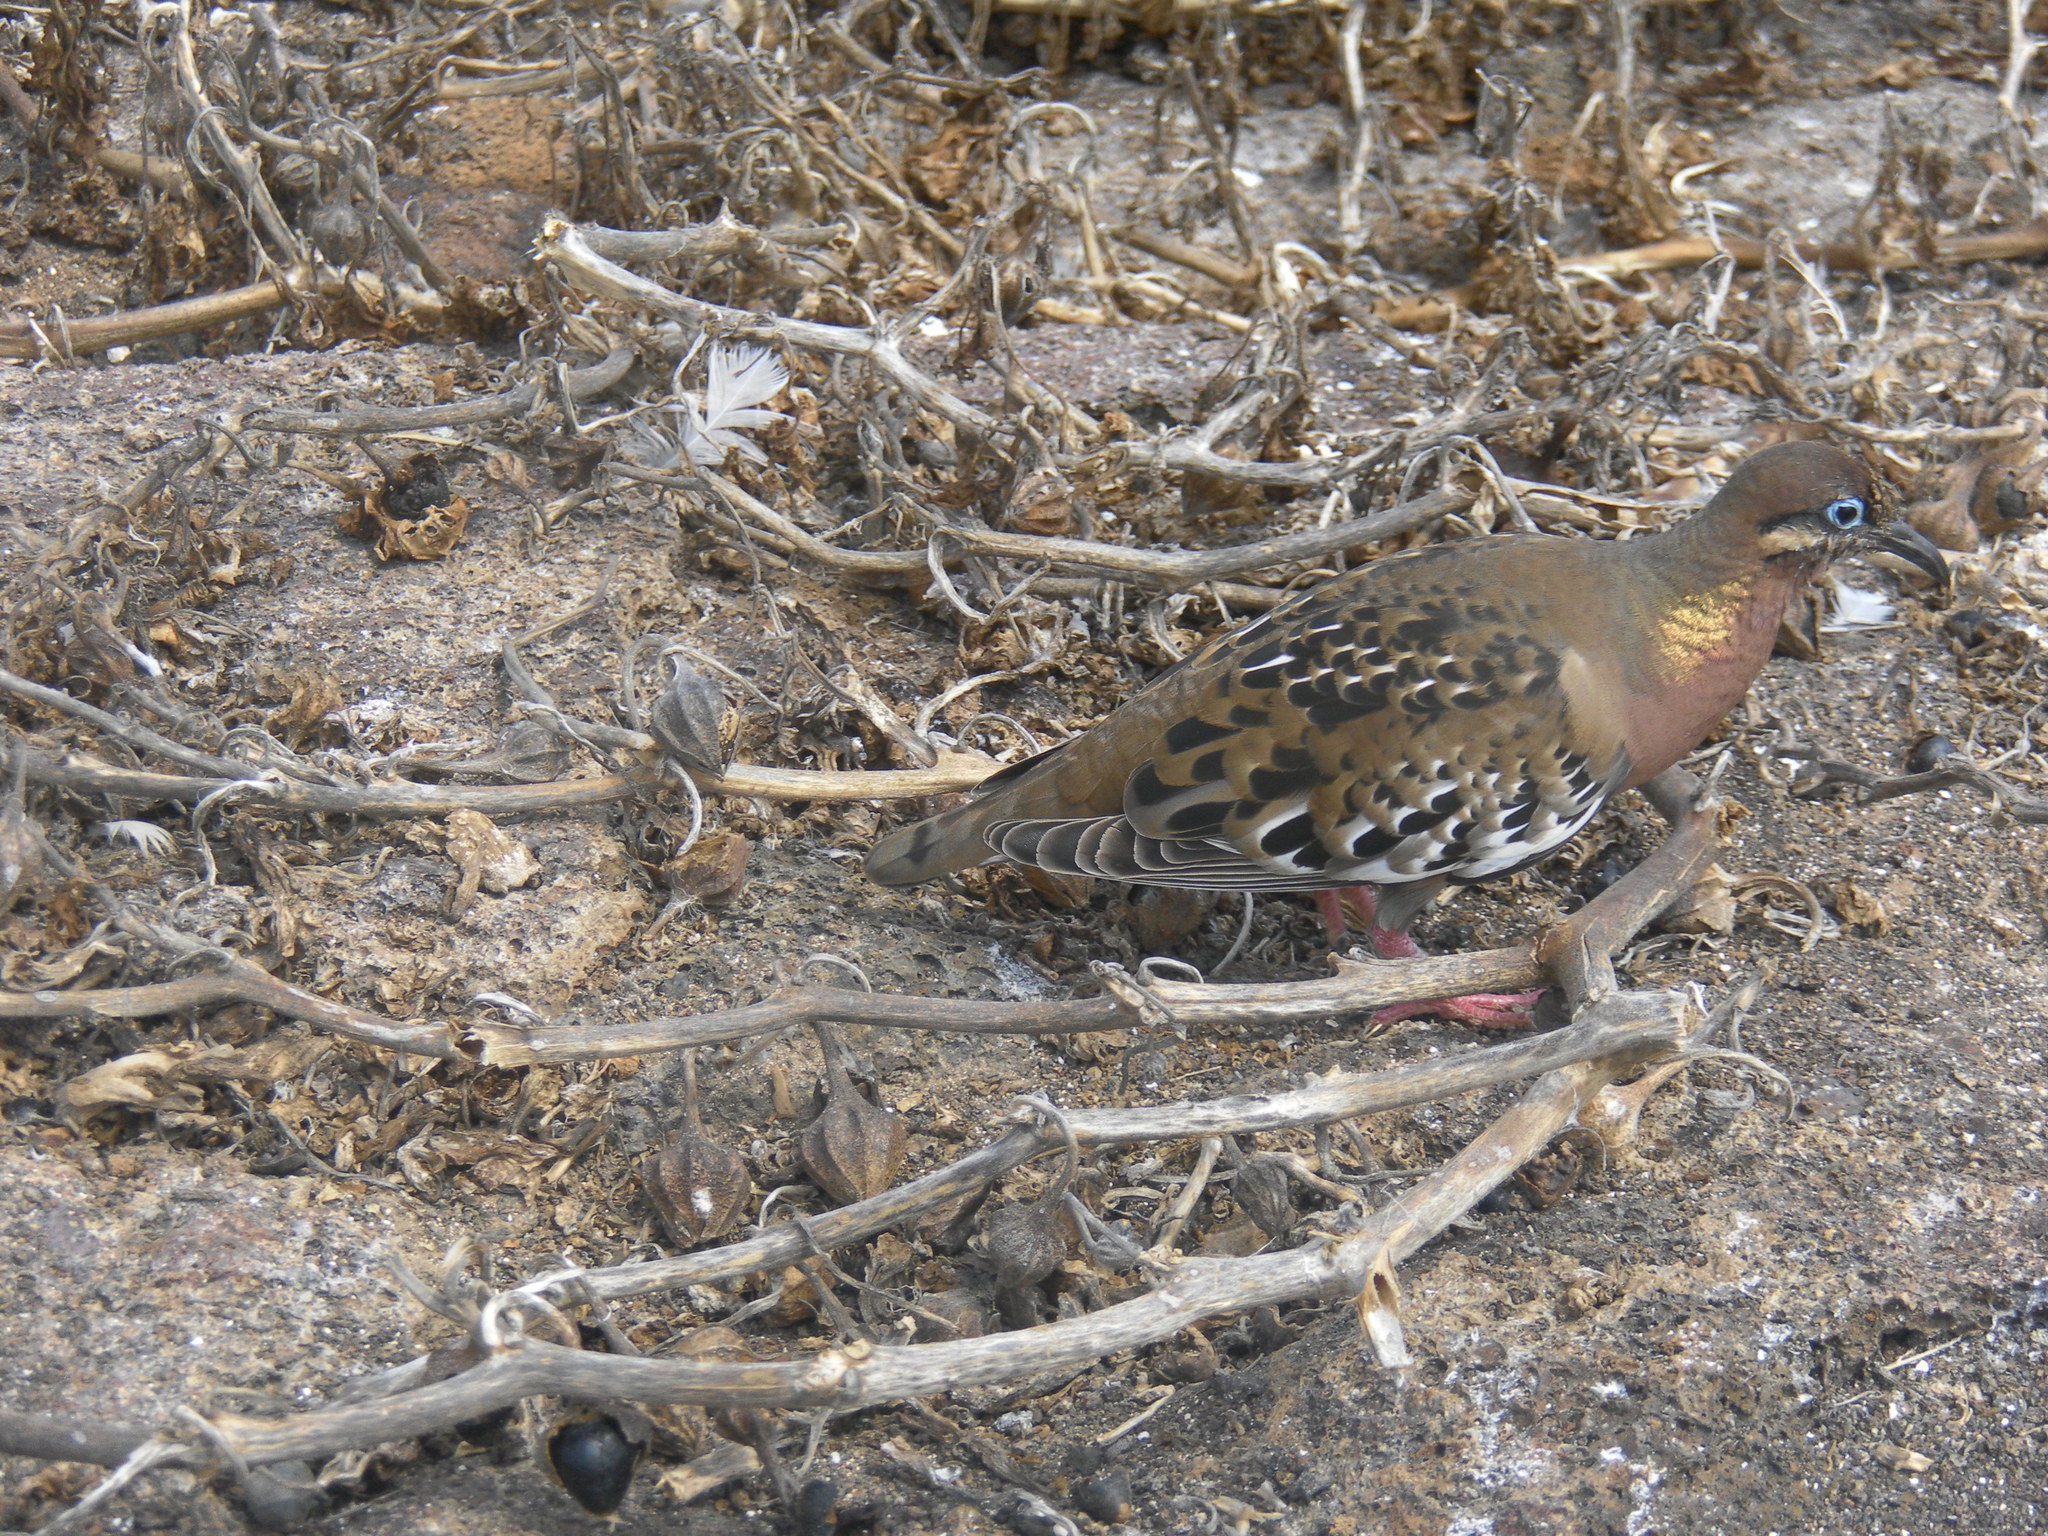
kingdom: Animalia
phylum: Chordata
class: Aves
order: Columbiformes
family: Columbidae
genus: Zenaida
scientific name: Zenaida galapagoensis
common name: Galapagos dove
